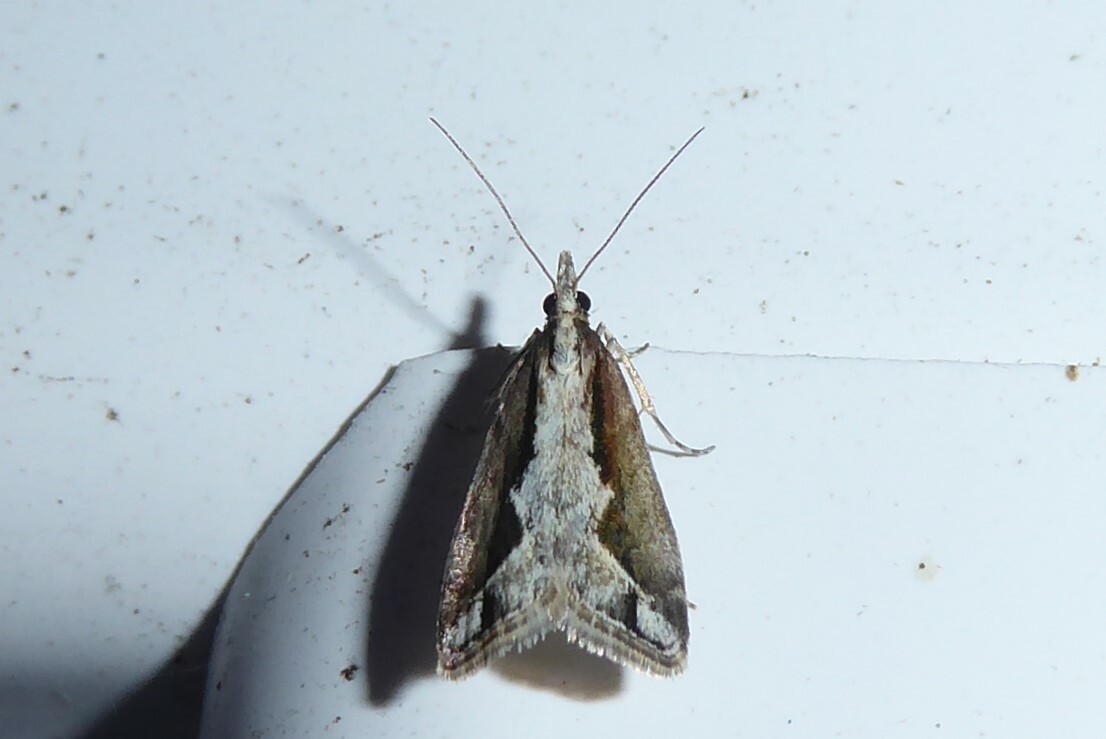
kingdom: Animalia
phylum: Arthropoda
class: Insecta
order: Lepidoptera
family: Crambidae
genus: Eudonia
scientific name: Eudonia steropaea
